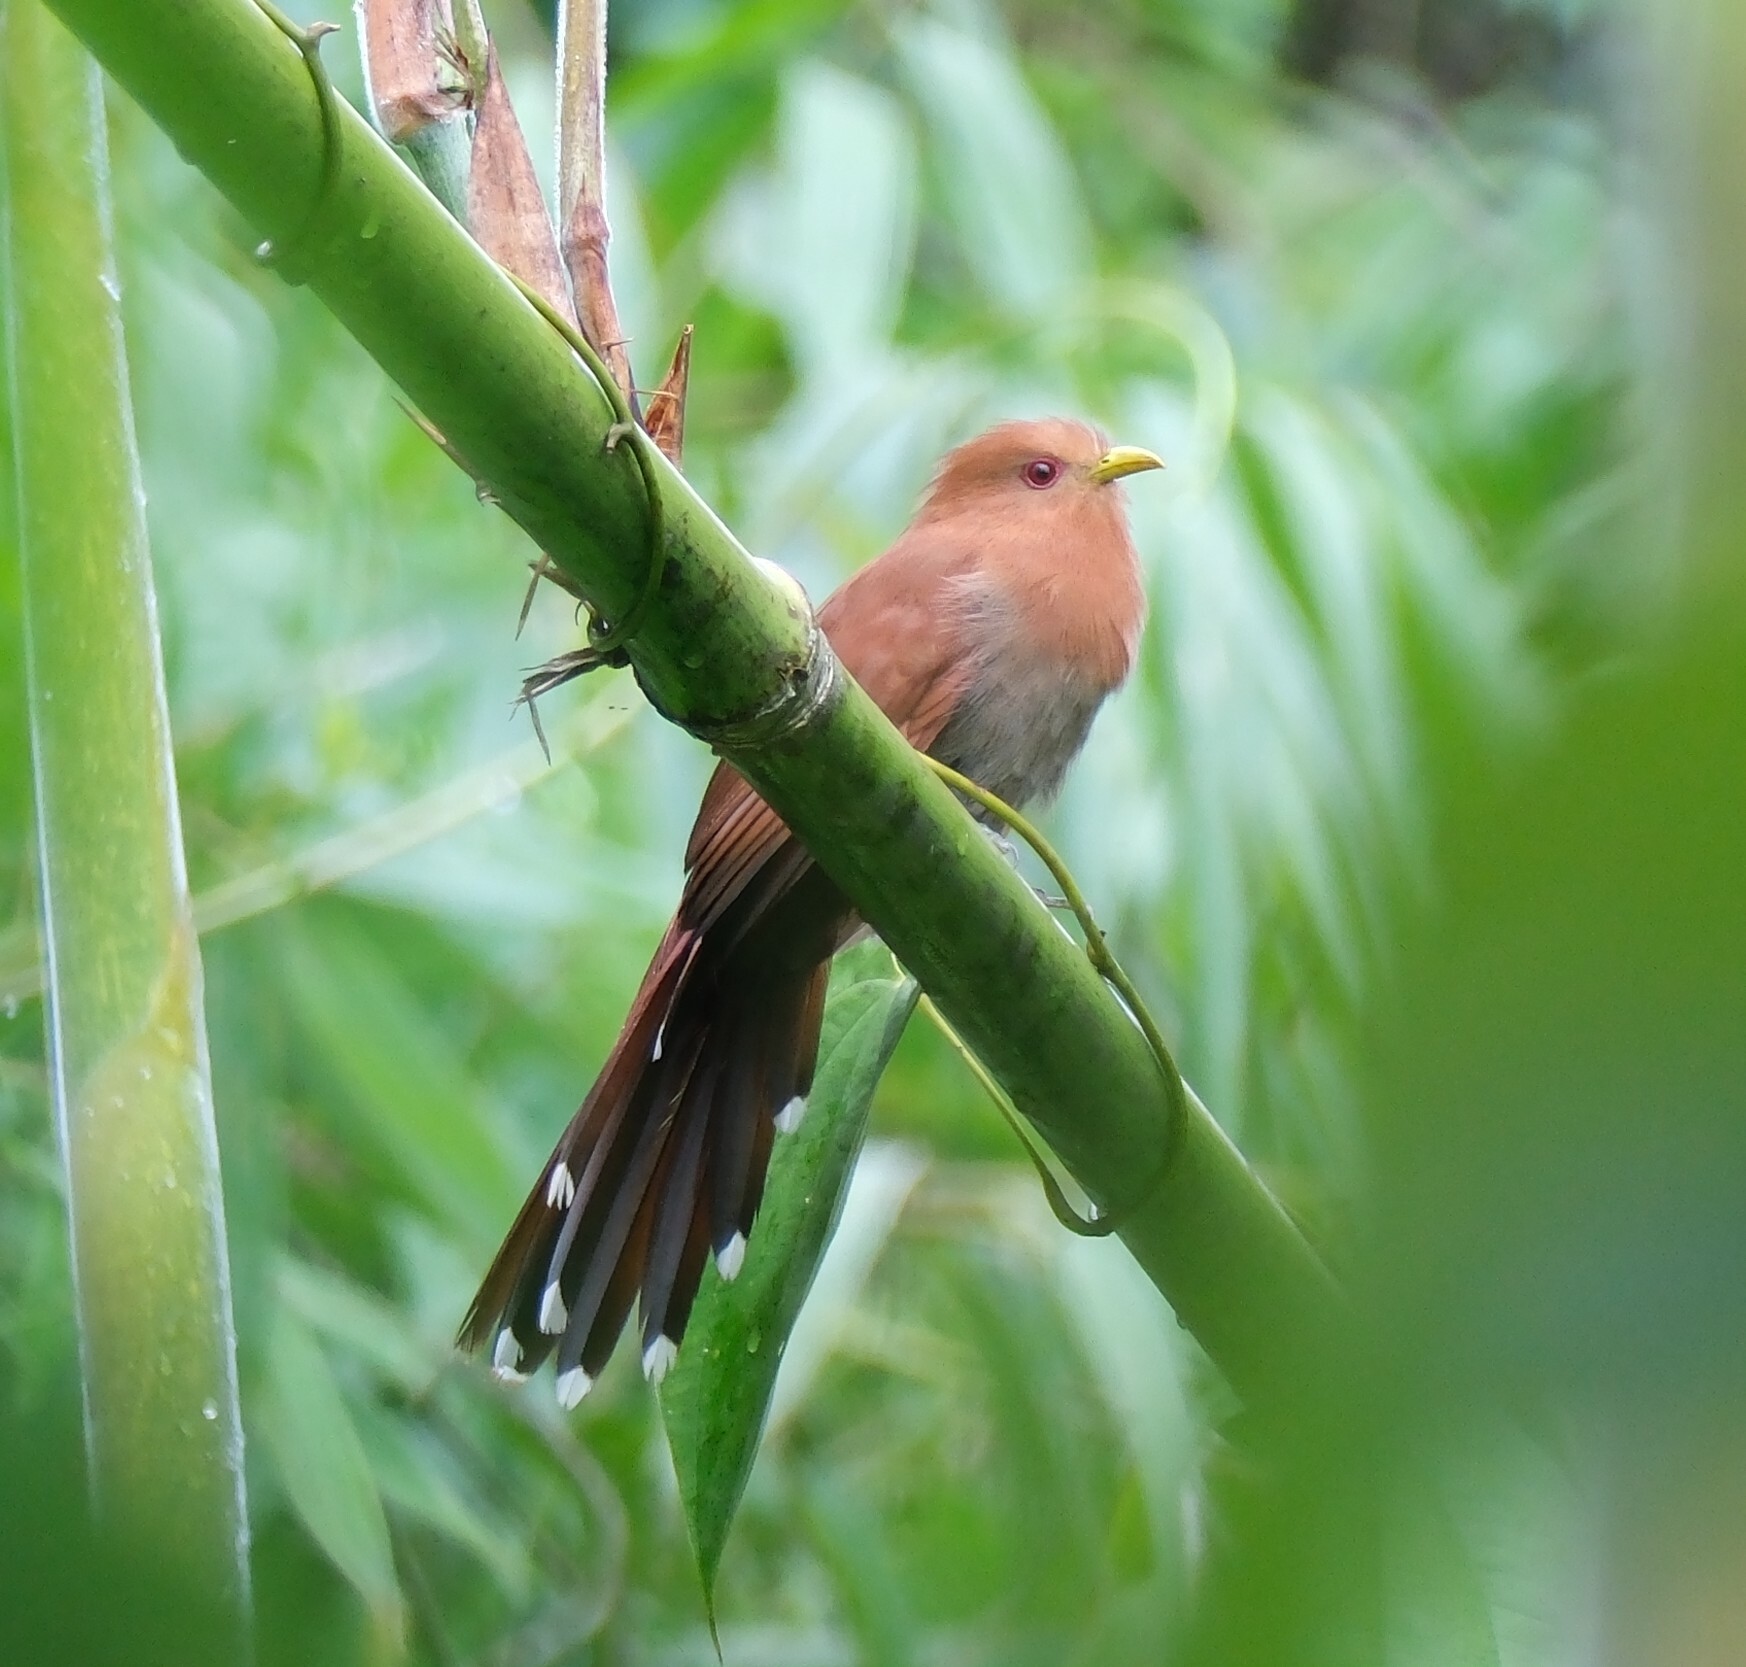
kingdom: Animalia
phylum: Chordata
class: Aves
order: Cuculiformes
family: Cuculidae
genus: Piaya
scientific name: Piaya minuta
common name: Little cuckoo
